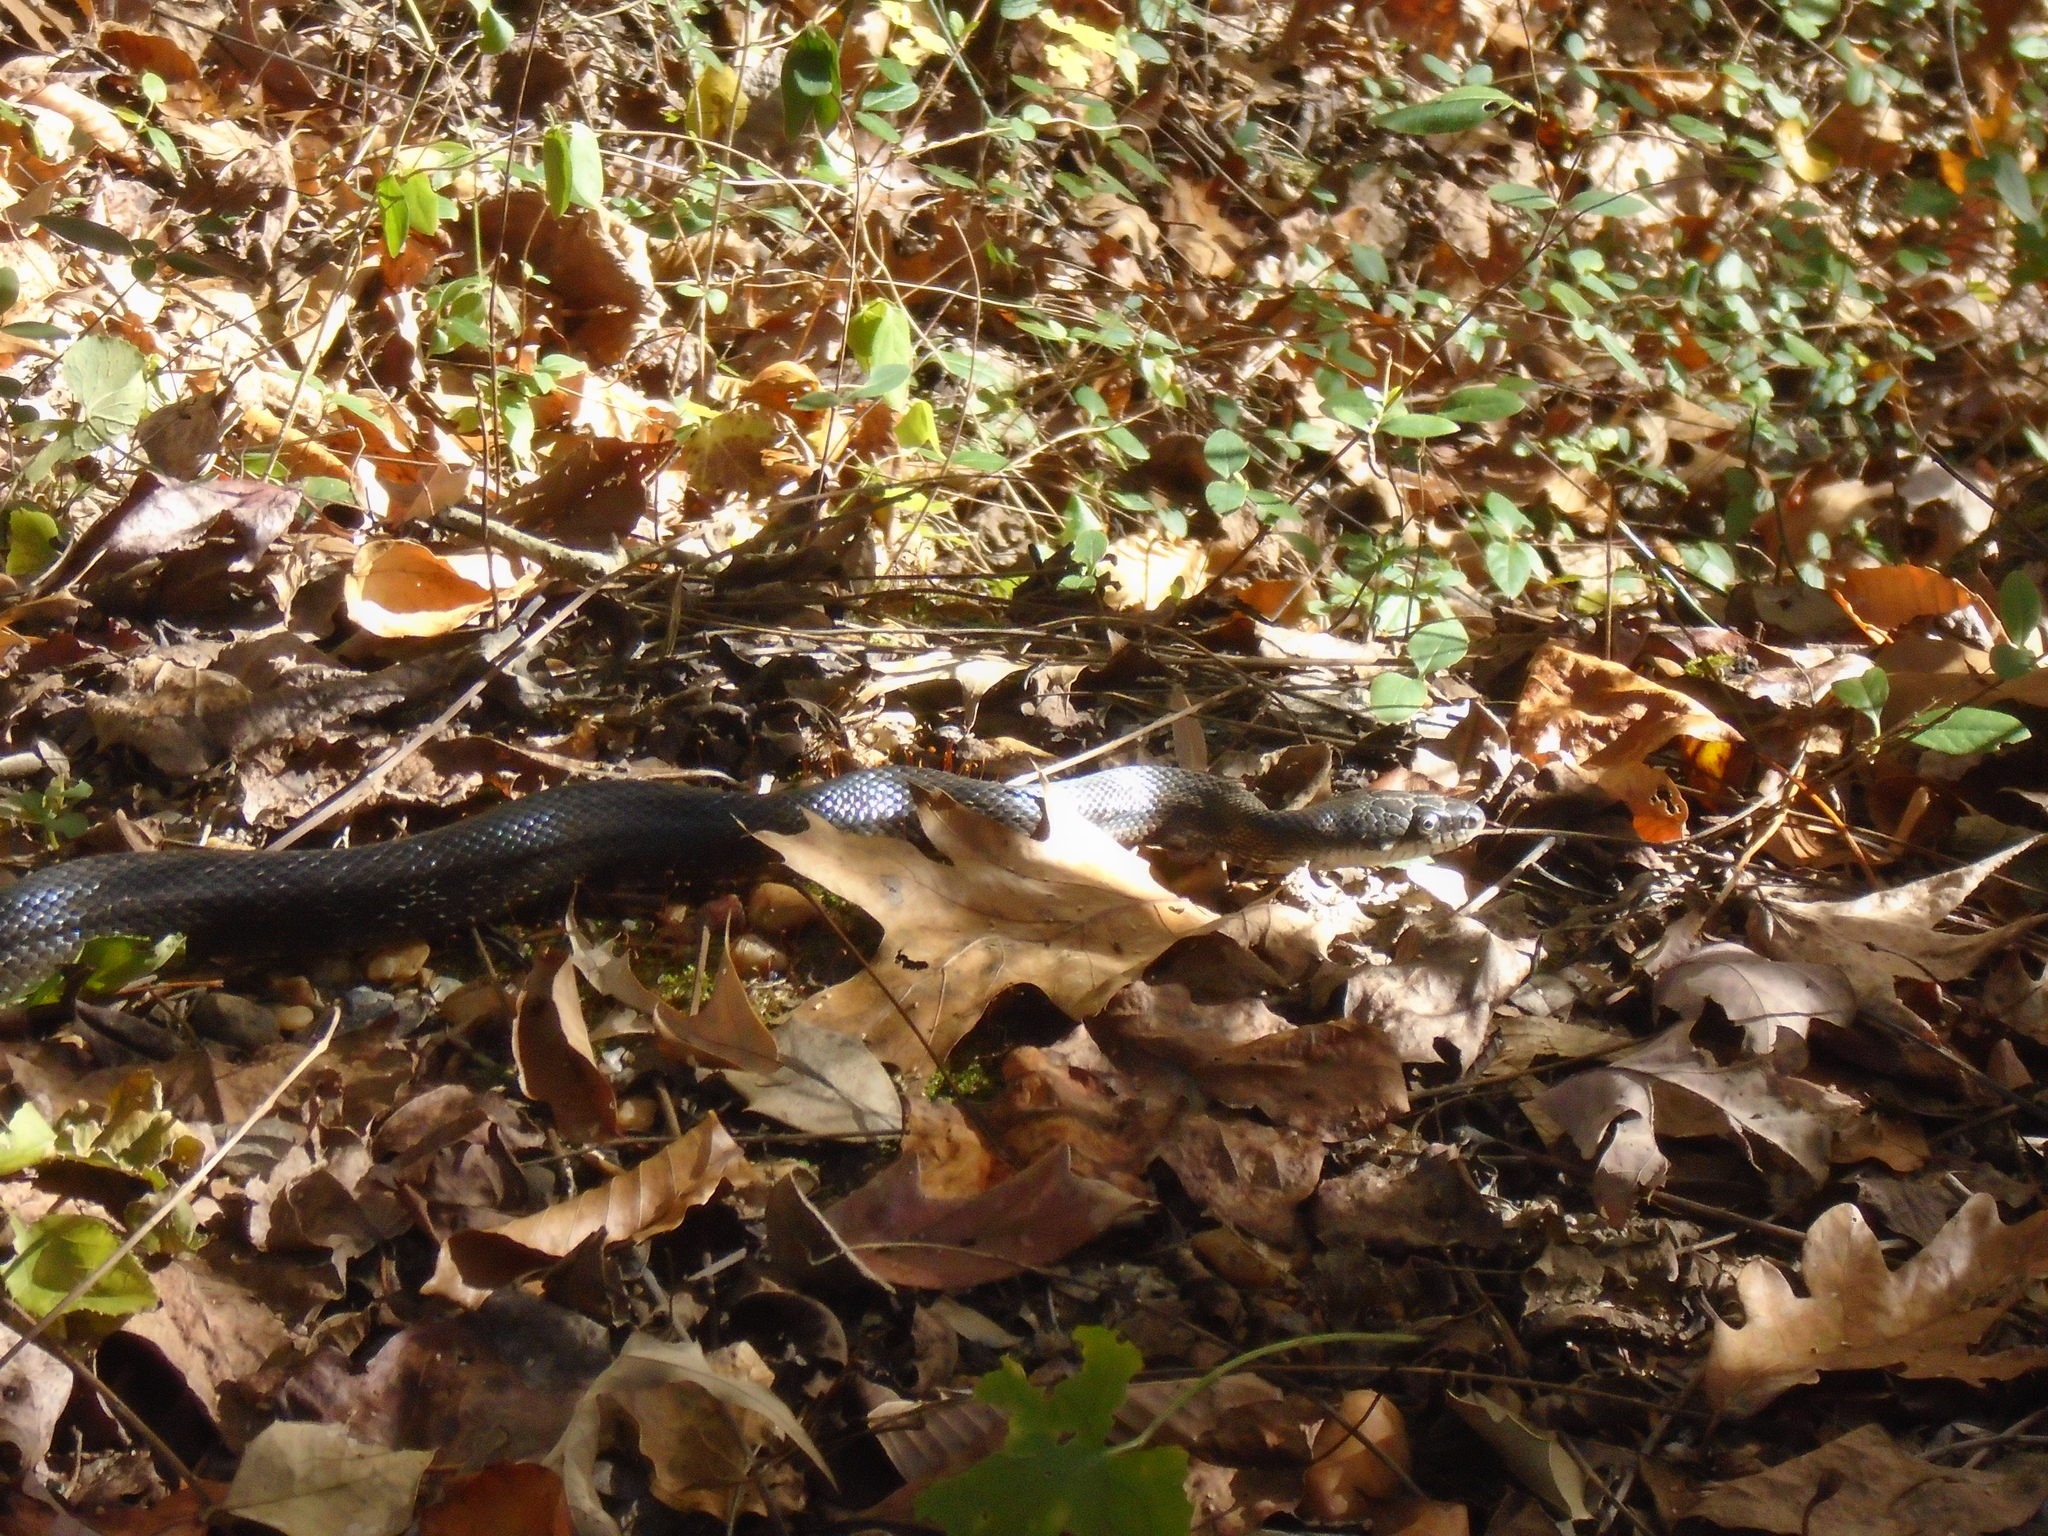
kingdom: Animalia
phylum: Chordata
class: Squamata
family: Colubridae
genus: Pantherophis
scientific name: Pantherophis alleghaniensis
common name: Eastern rat snake
